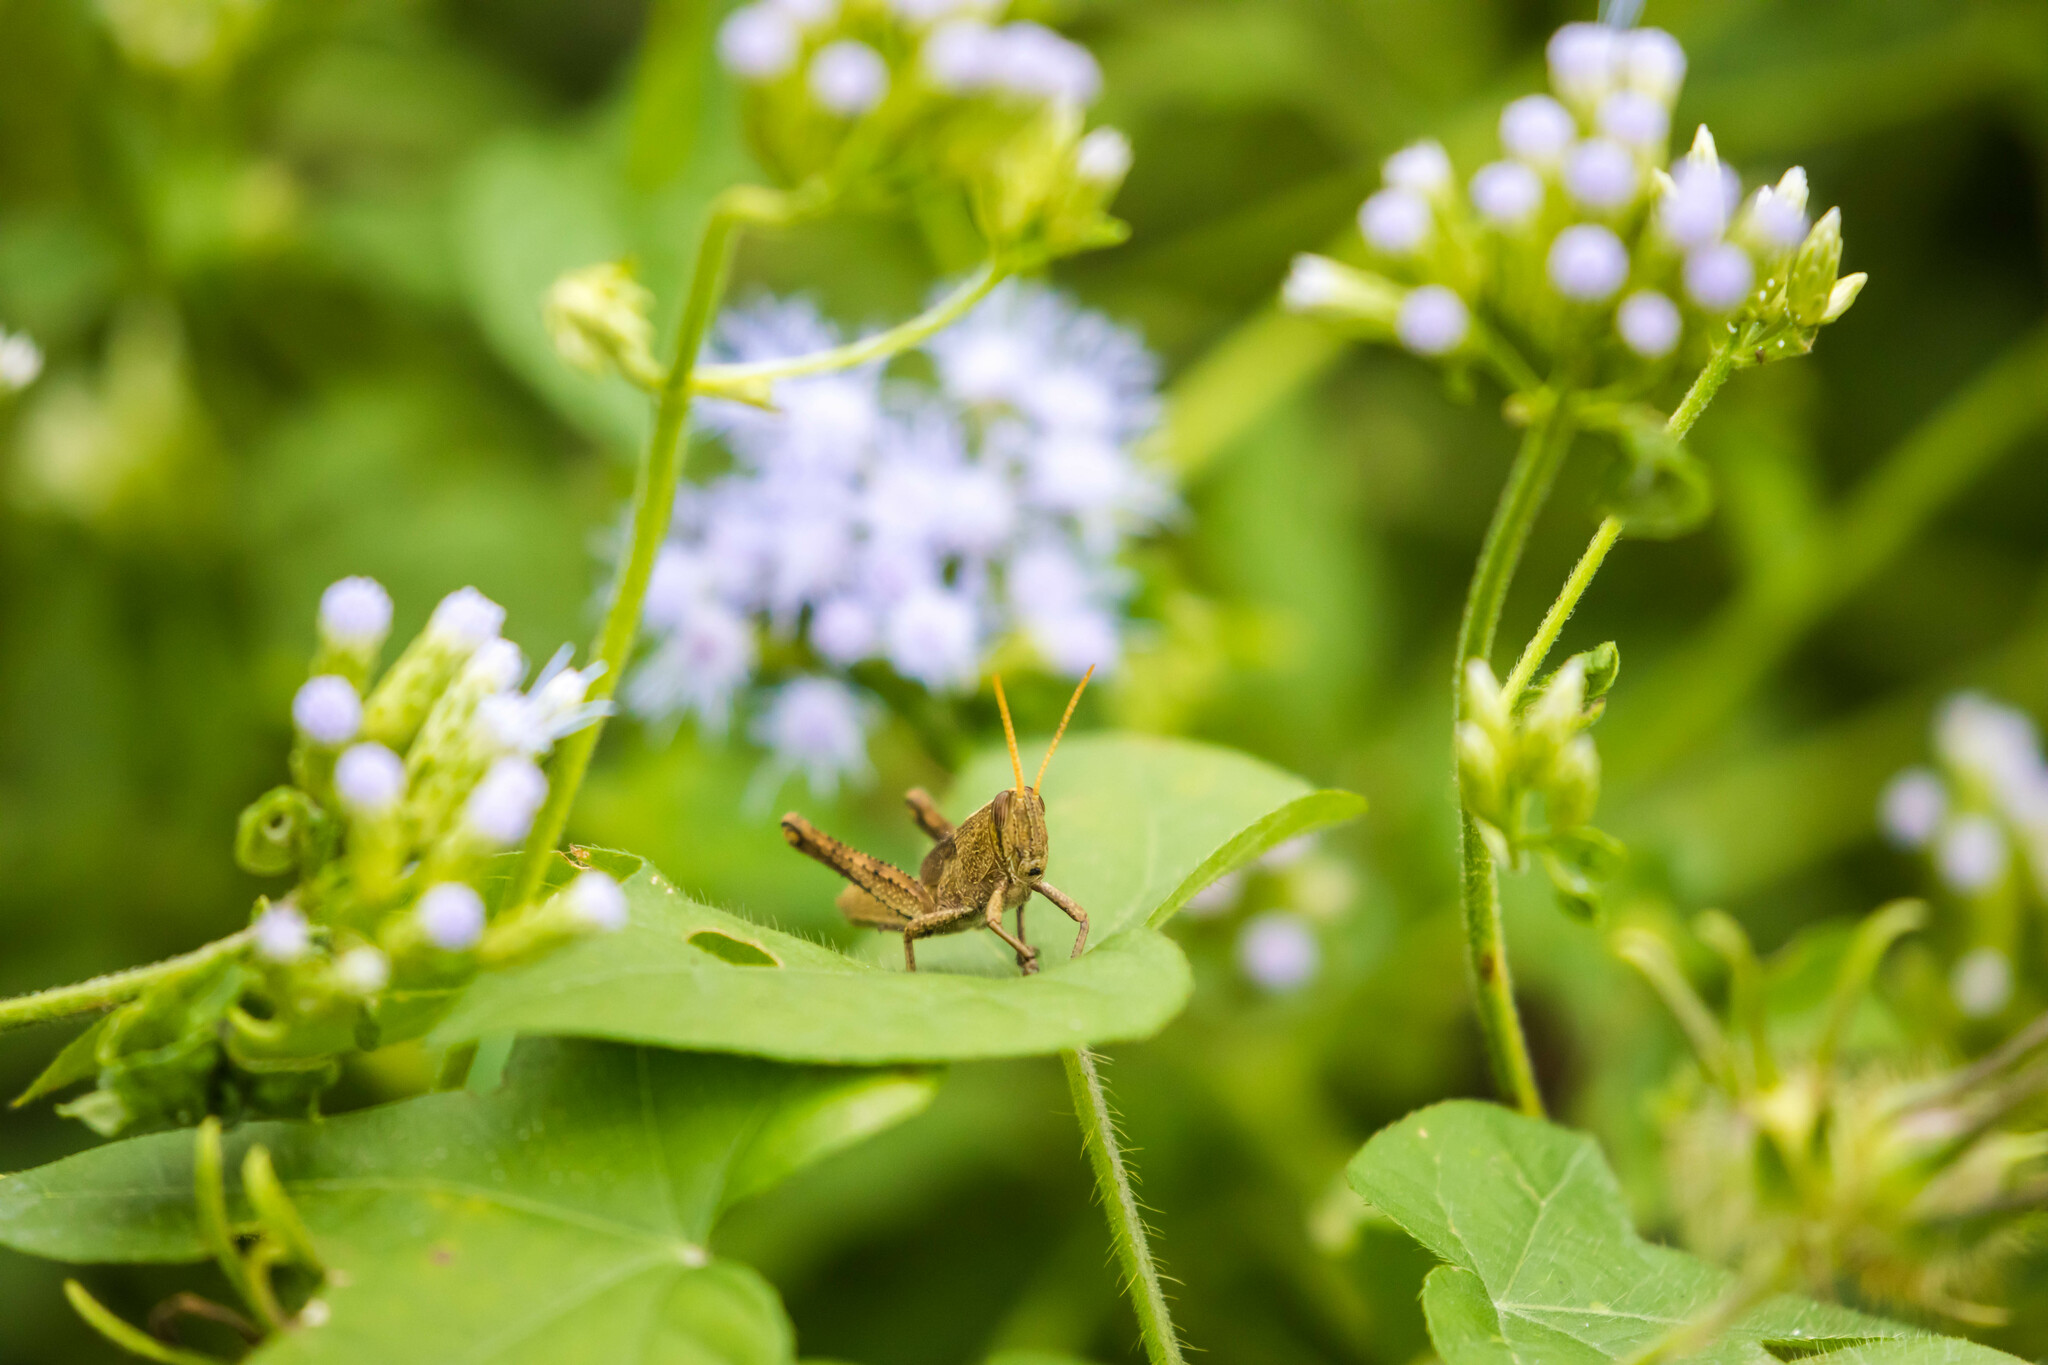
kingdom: Animalia
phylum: Arthropoda
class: Insecta
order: Orthoptera
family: Acrididae
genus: Schistocerca
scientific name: Schistocerca impleta
